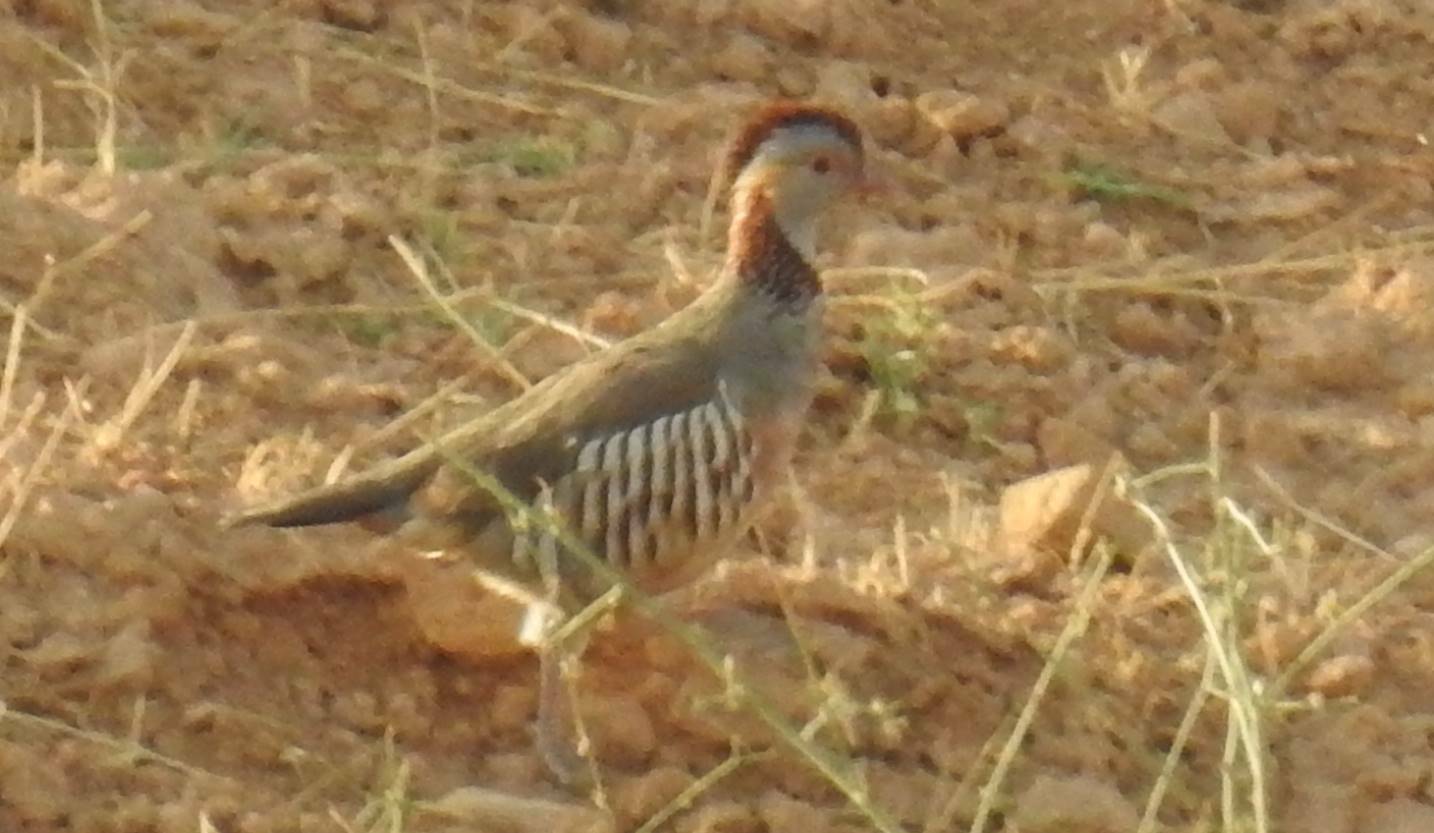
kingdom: Animalia
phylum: Chordata
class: Aves
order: Galliformes
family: Phasianidae
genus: Alectoris
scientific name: Alectoris barbara
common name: Barbary partridge
